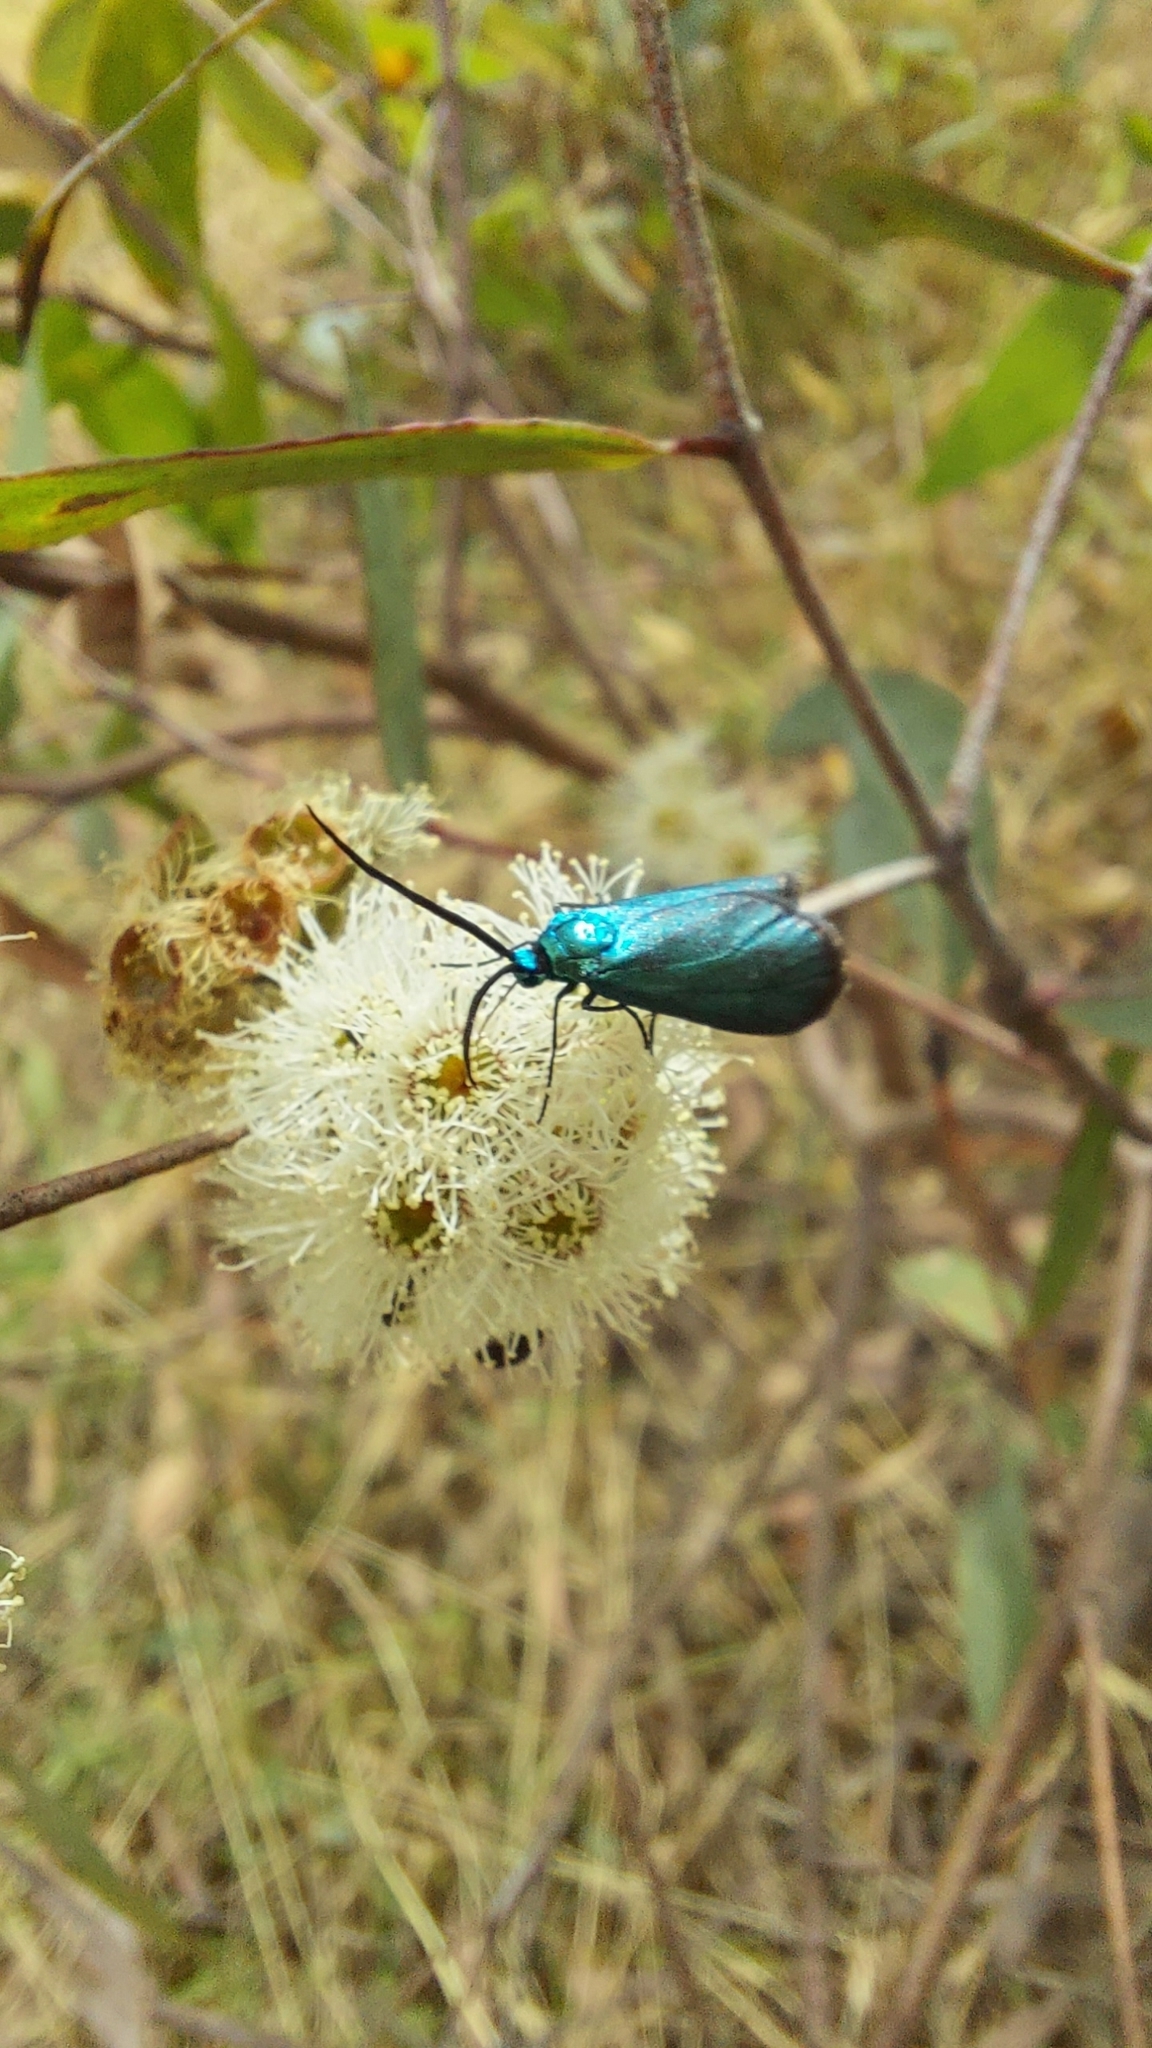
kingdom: Animalia
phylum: Arthropoda
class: Insecta
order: Lepidoptera
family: Zygaenidae
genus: Pollanisus
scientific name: Pollanisus viridipulverulenta
